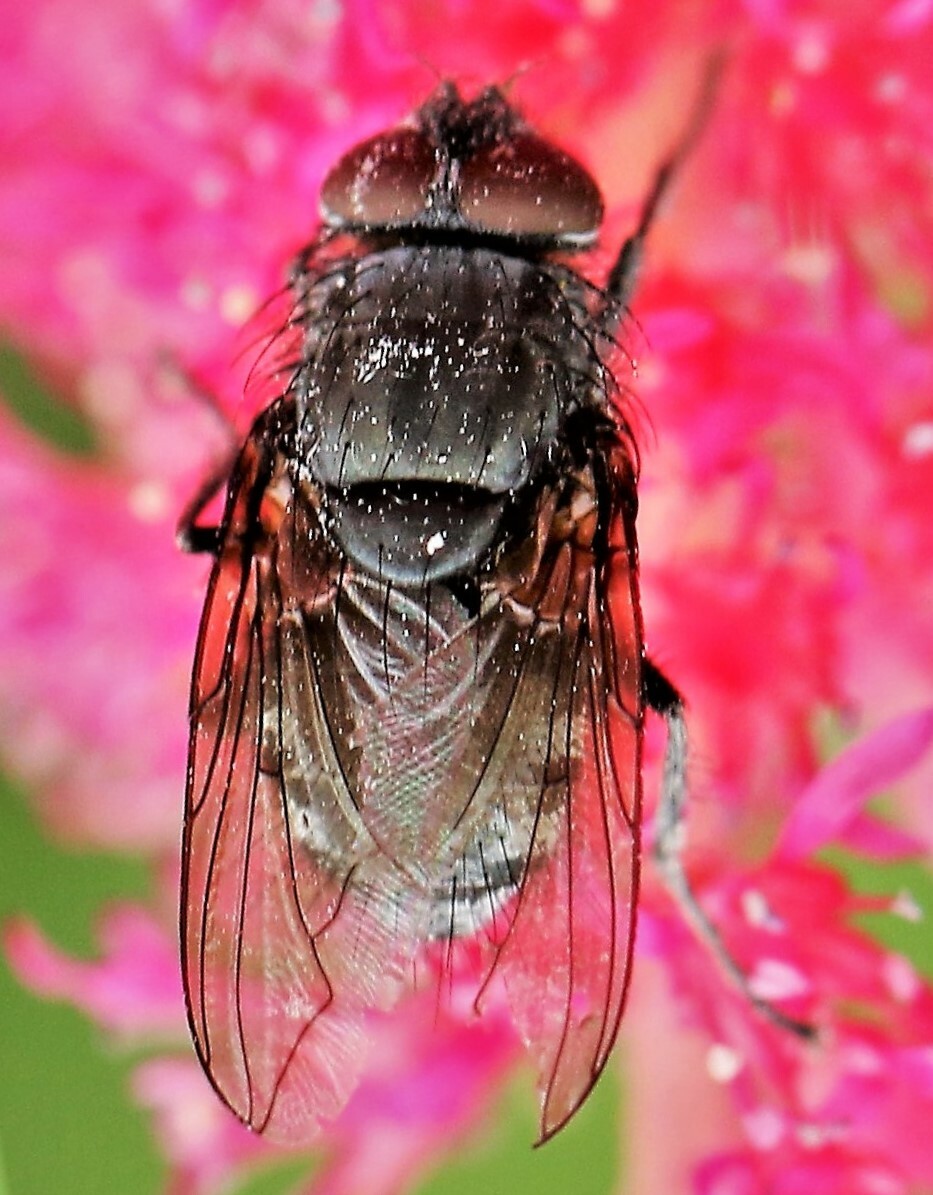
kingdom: Animalia
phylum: Arthropoda
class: Insecta
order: Diptera
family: Polleniidae
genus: Pollenia
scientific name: Pollenia
